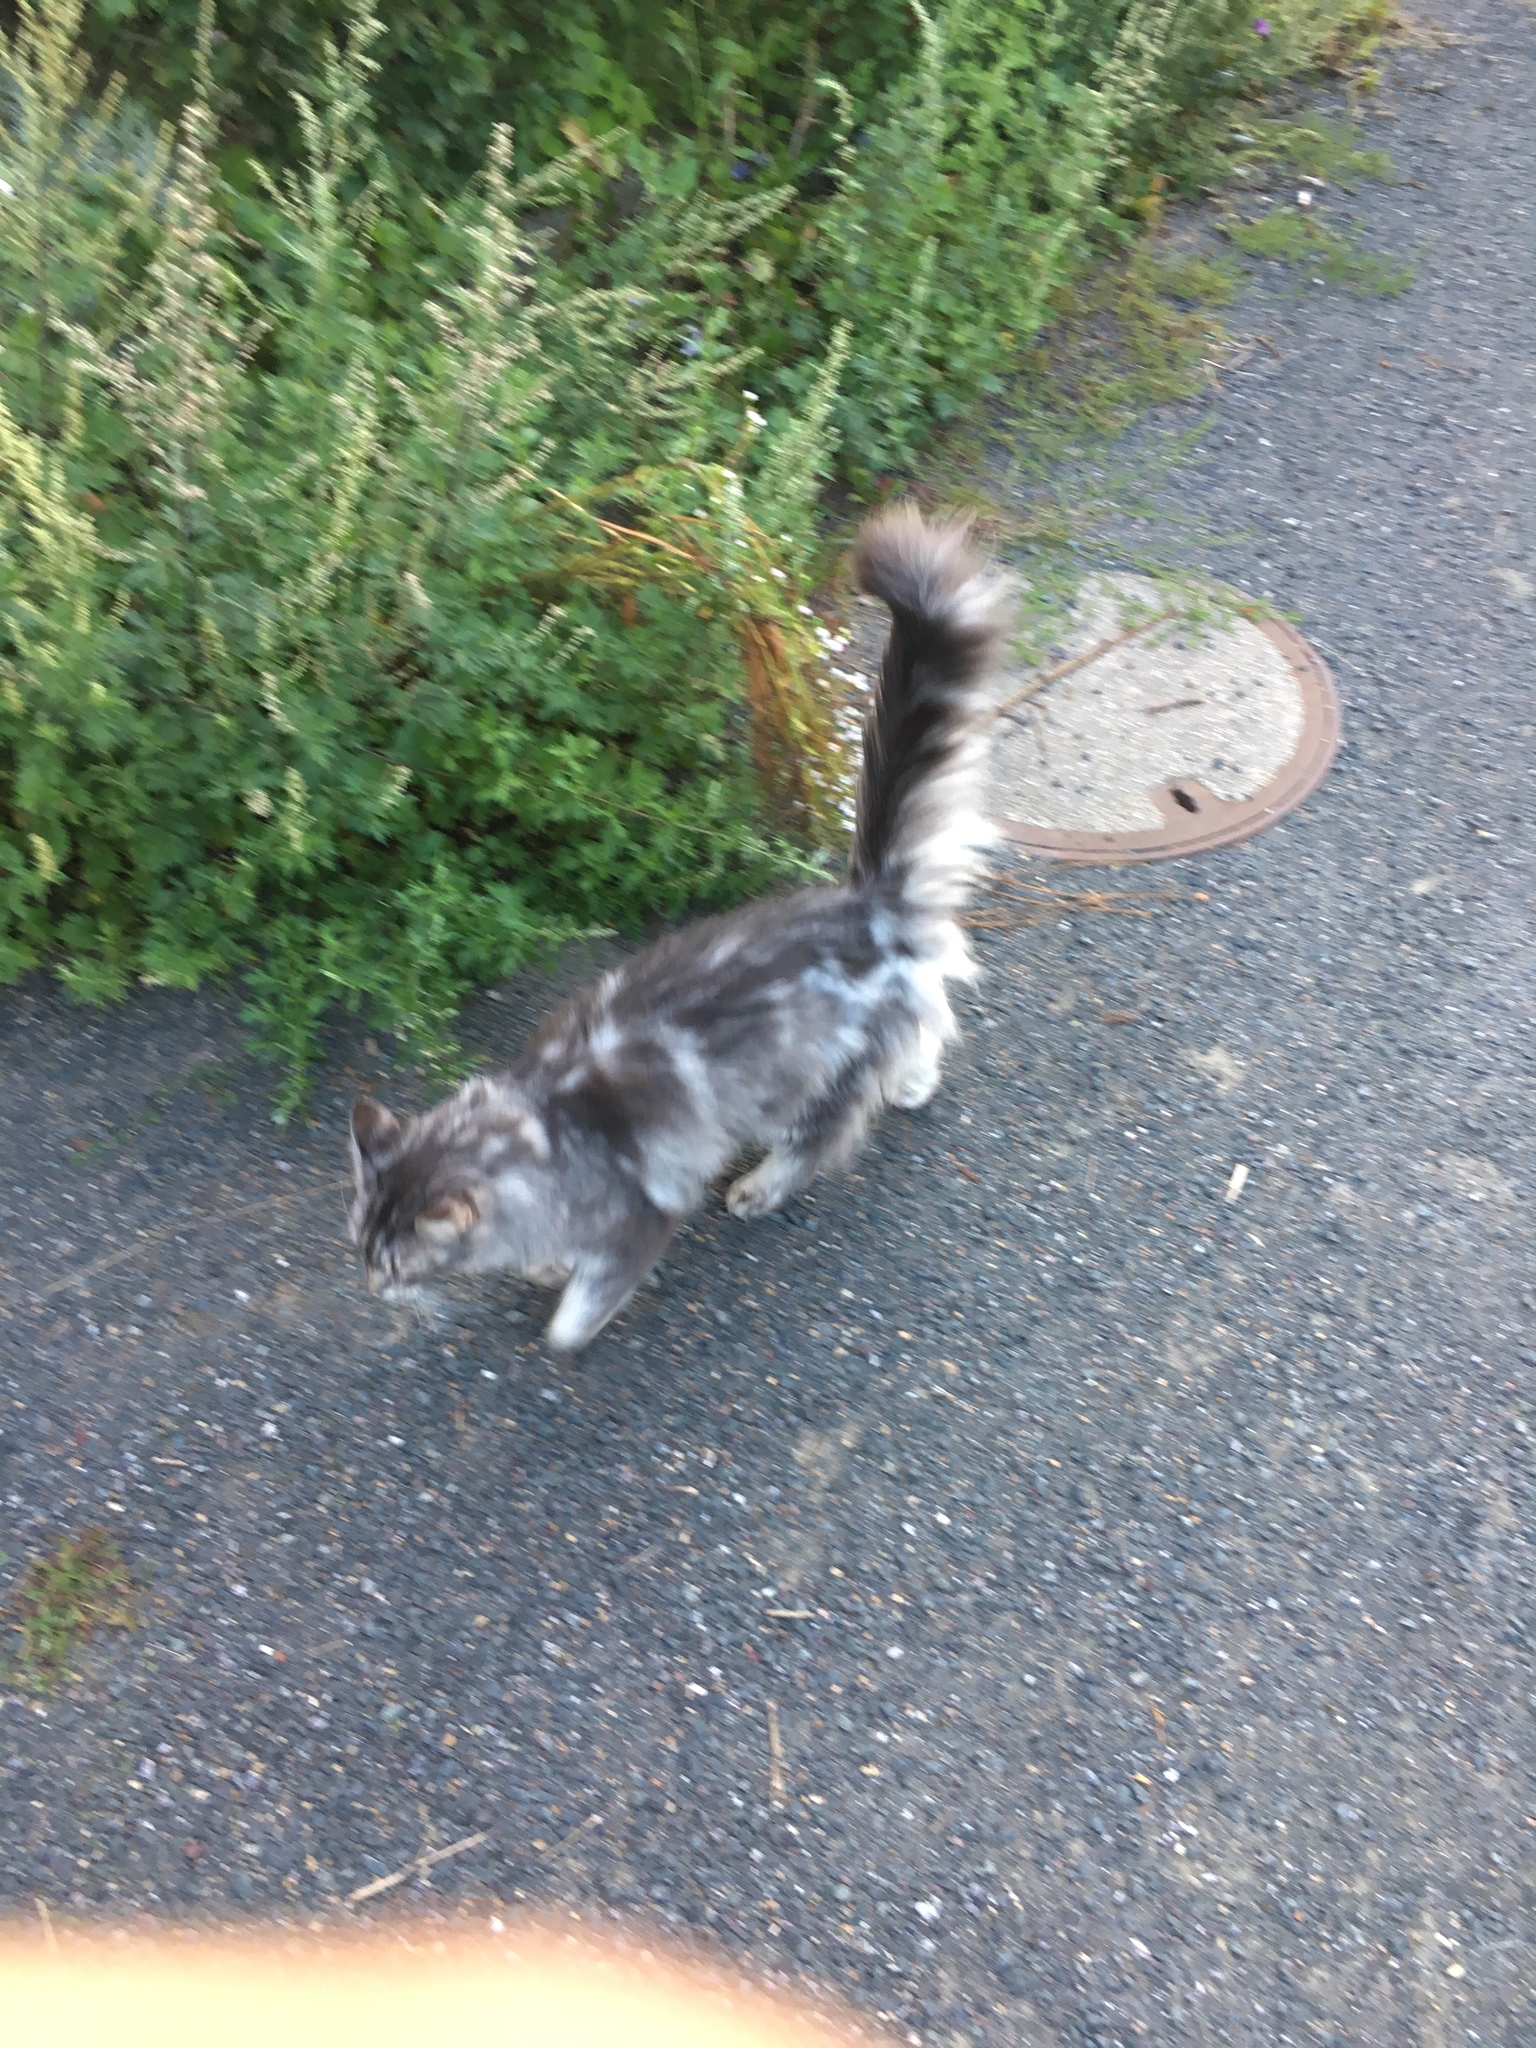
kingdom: Animalia
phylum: Chordata
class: Mammalia
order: Carnivora
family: Felidae
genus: Felis
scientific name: Felis catus
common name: Domestic cat
